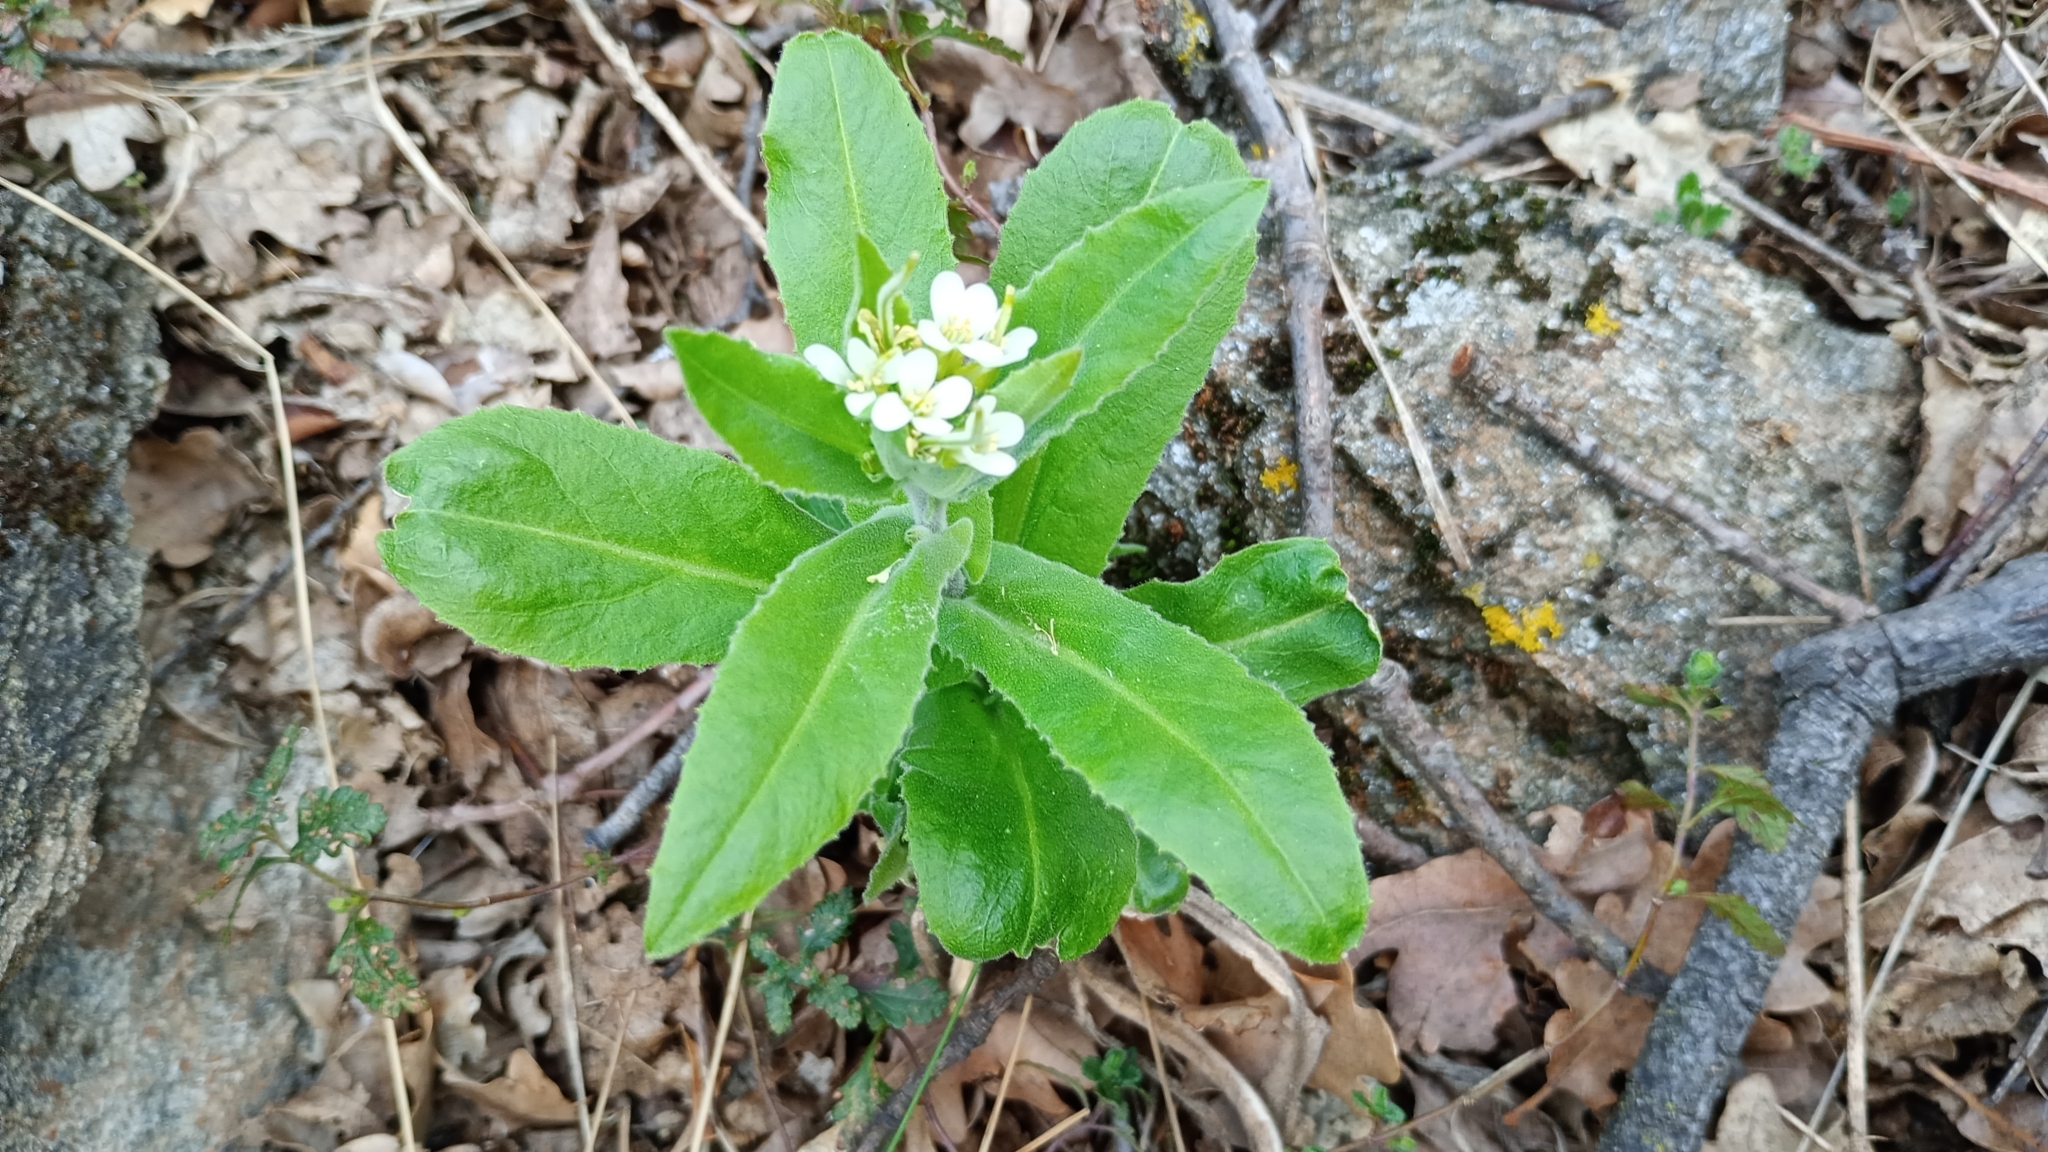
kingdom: Plantae
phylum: Tracheophyta
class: Magnoliopsida
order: Brassicales
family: Brassicaceae
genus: Pseudoturritis
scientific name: Pseudoturritis turrita
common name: Tower cress
